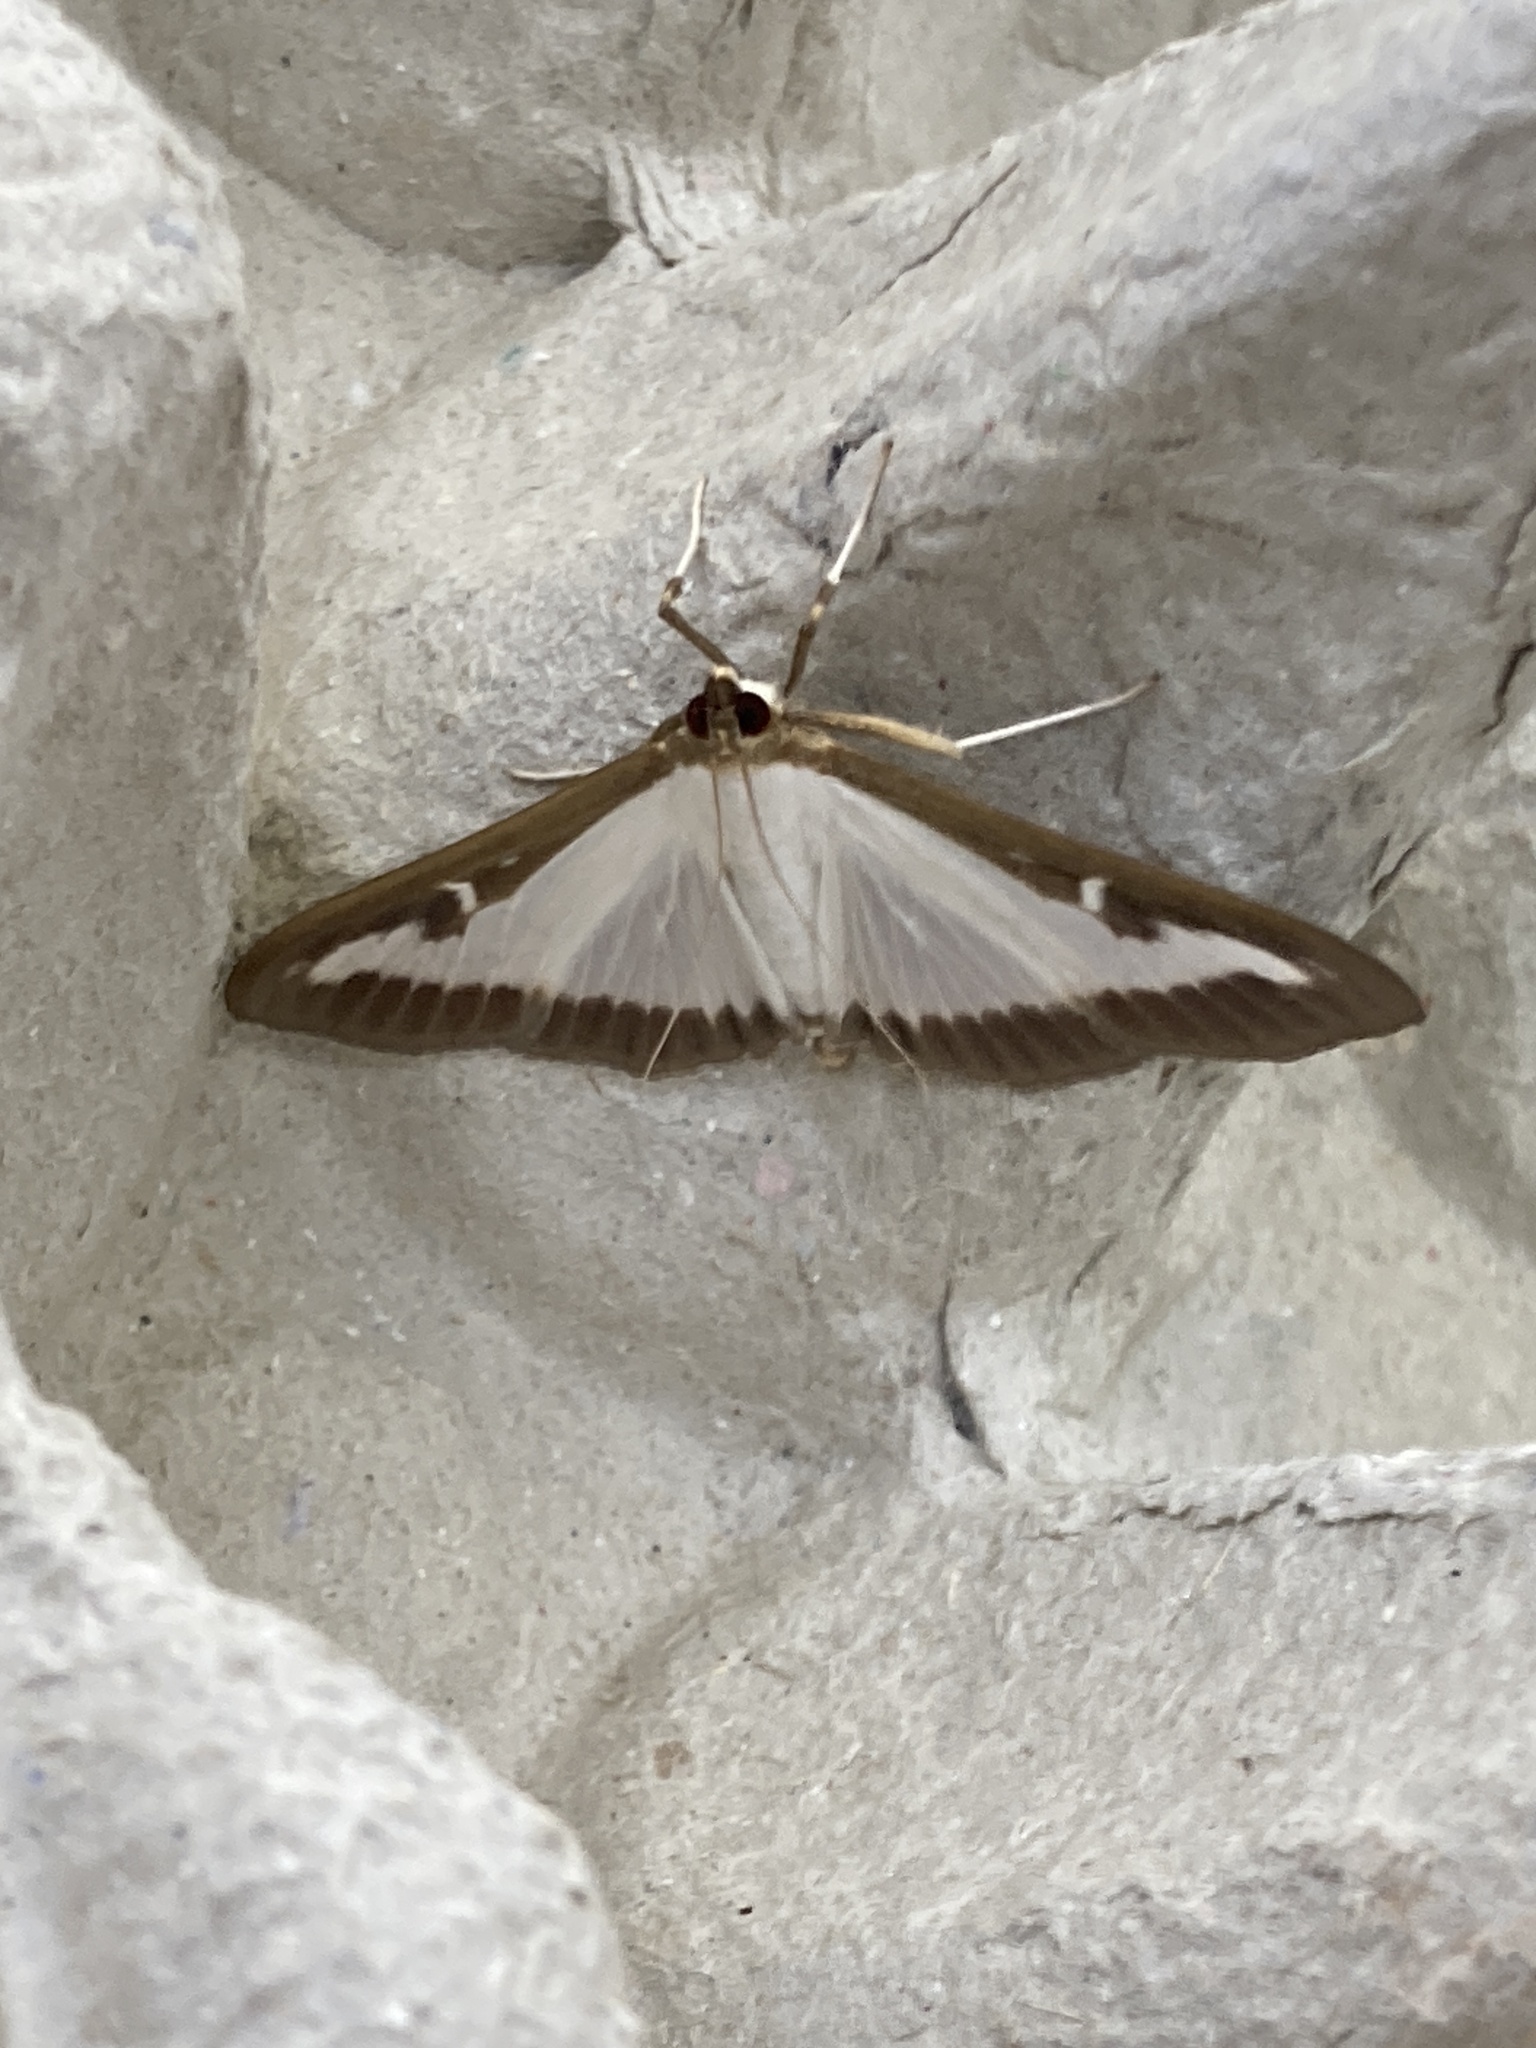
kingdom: Animalia
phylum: Arthropoda
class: Insecta
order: Lepidoptera
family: Crambidae
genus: Cydalima
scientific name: Cydalima perspectalis
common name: Box tree moth
